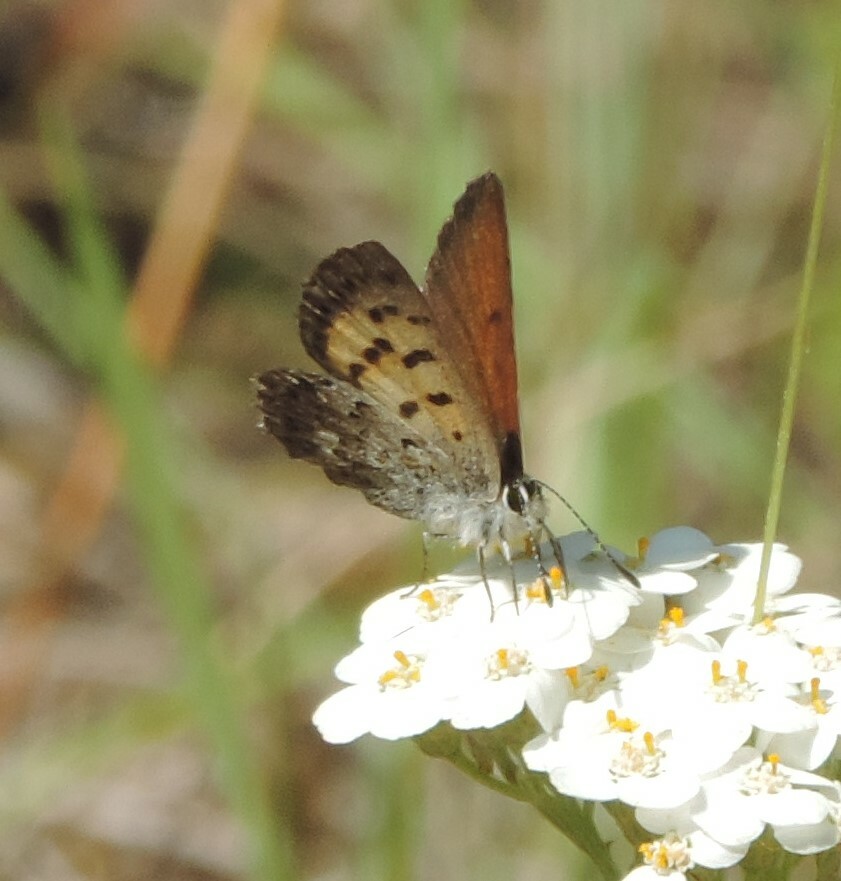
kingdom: Animalia
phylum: Arthropoda
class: Insecta
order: Lepidoptera
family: Lycaenidae
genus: Tharsalea
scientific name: Tharsalea mariposa
